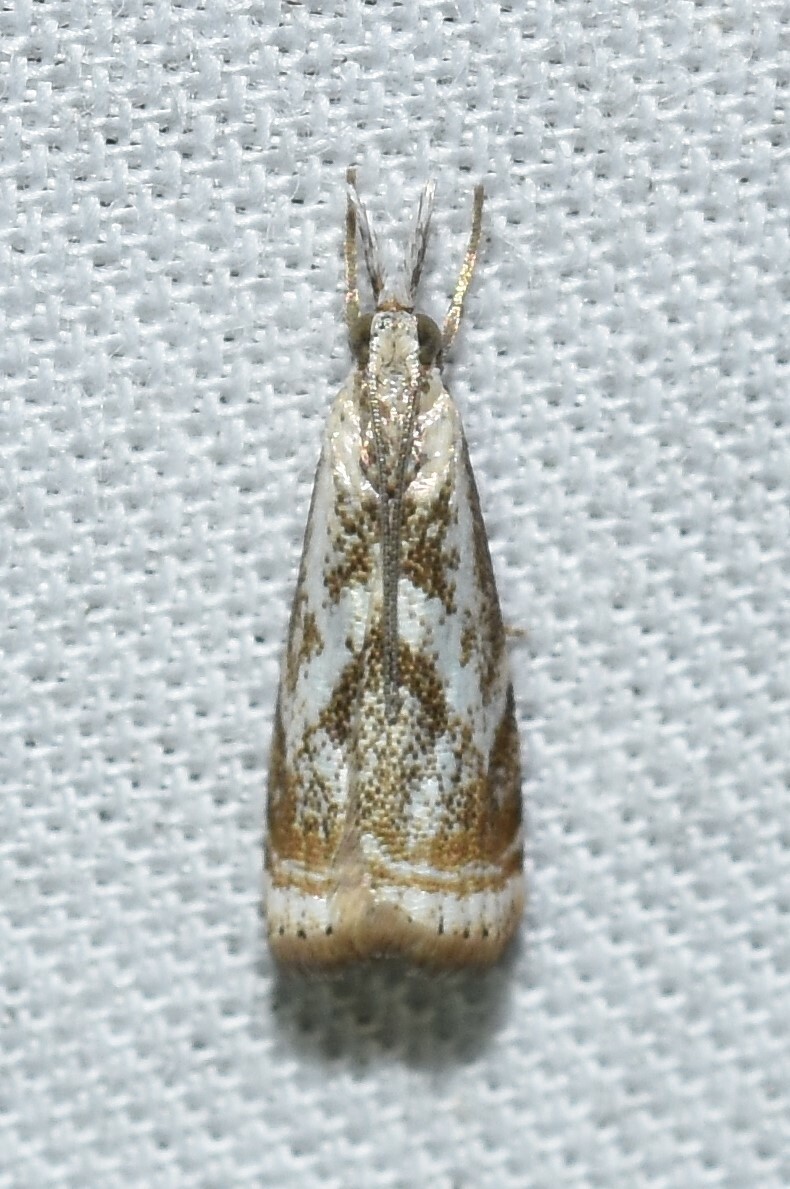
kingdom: Animalia
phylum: Arthropoda
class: Insecta
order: Lepidoptera
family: Crambidae
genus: Microcrambus
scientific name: Microcrambus elegans
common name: Elegant grass-veneer
